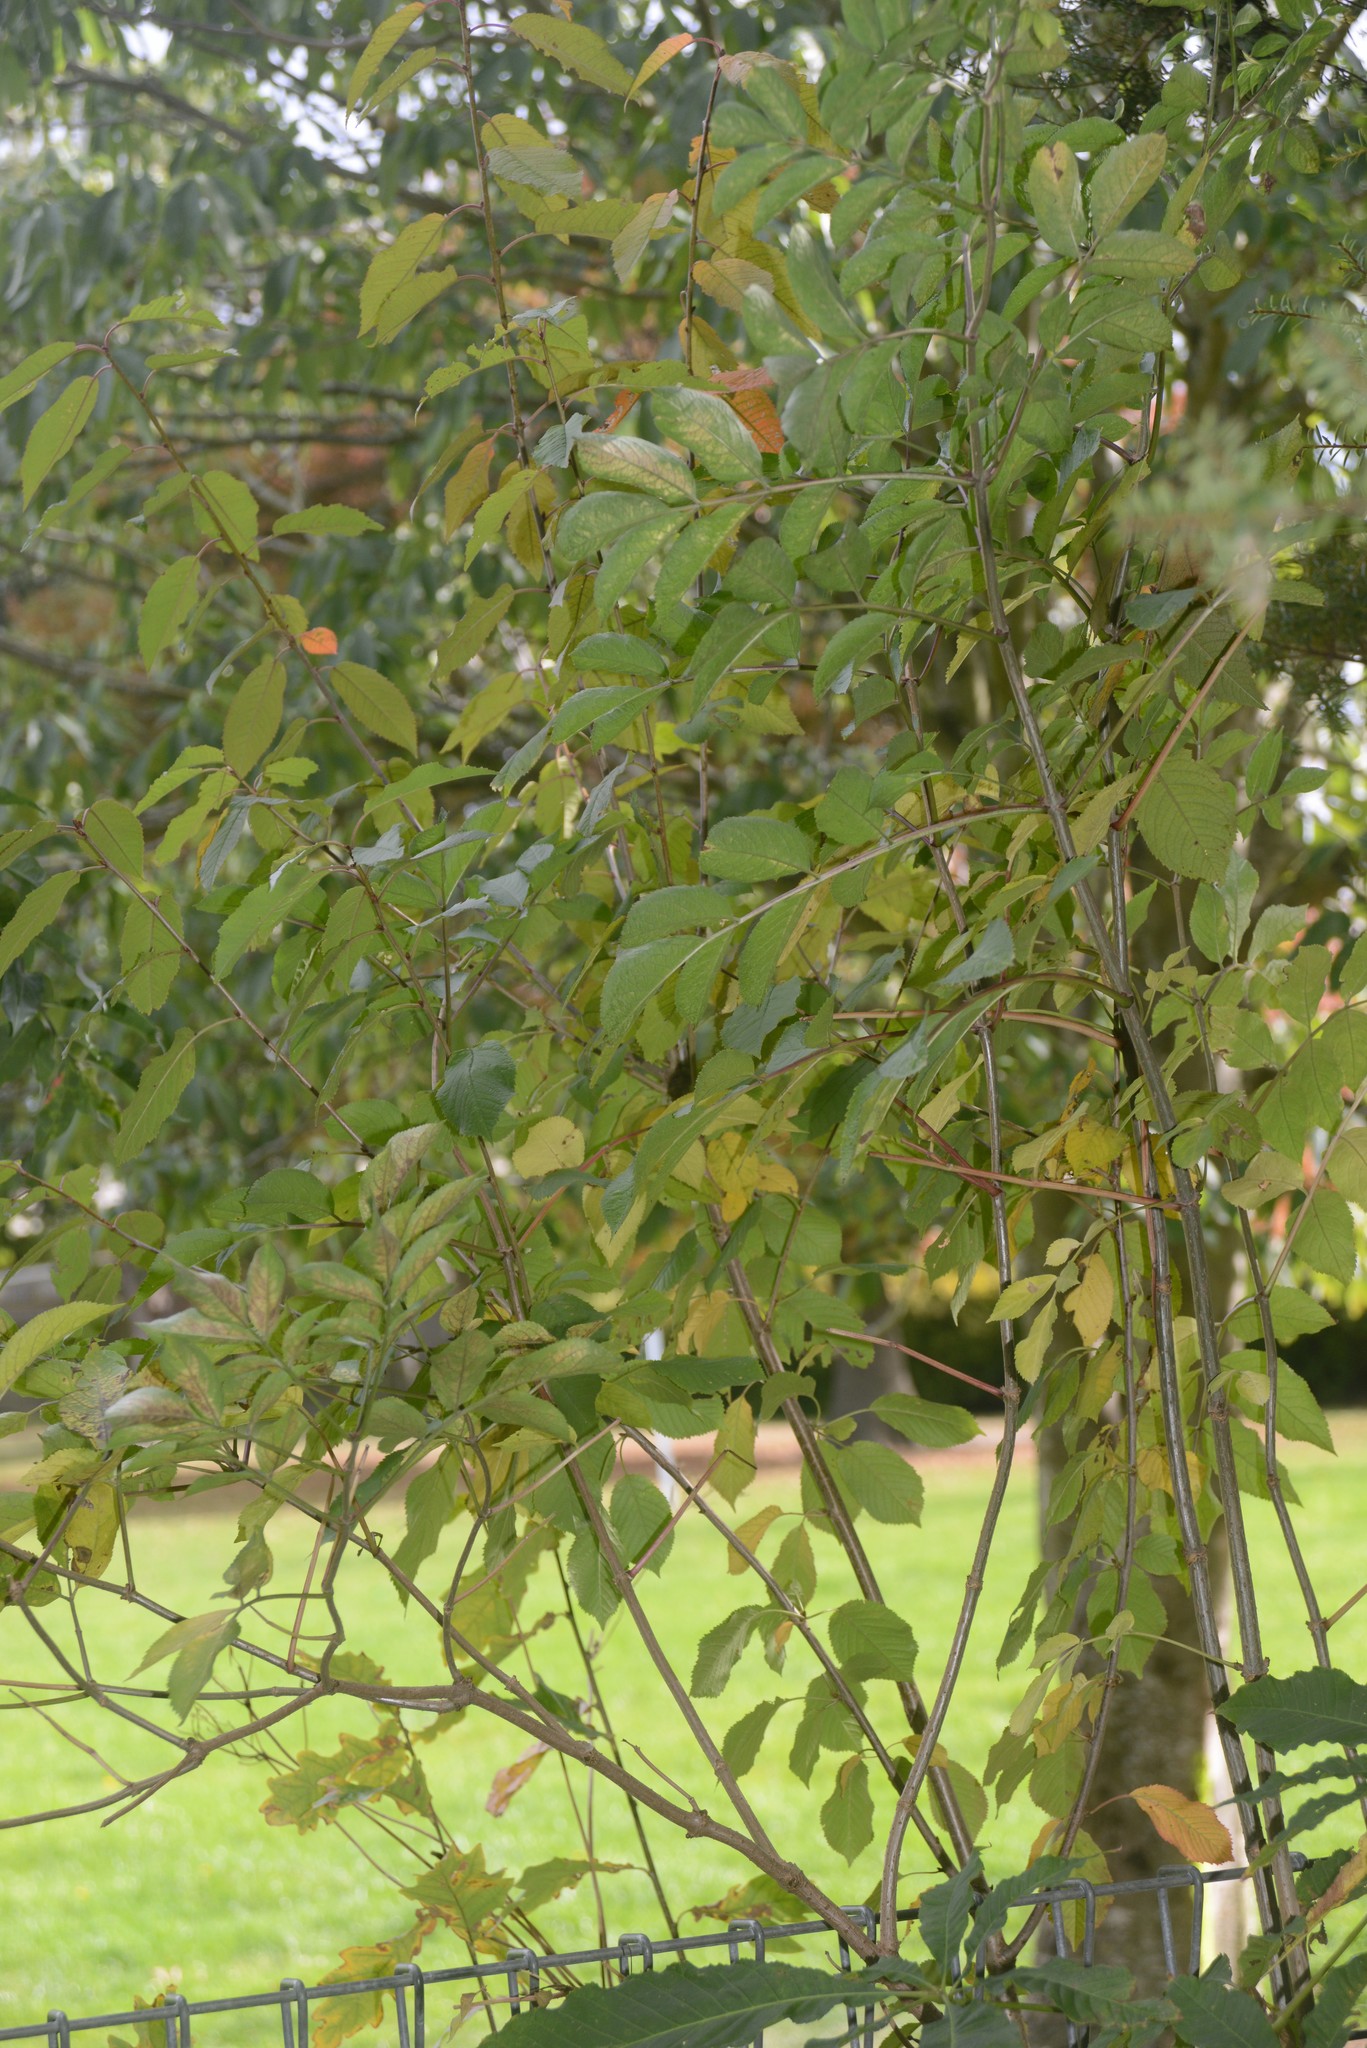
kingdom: Plantae
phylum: Tracheophyta
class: Magnoliopsida
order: Dipsacales
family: Viburnaceae
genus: Sambucus
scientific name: Sambucus nigra
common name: Elder
